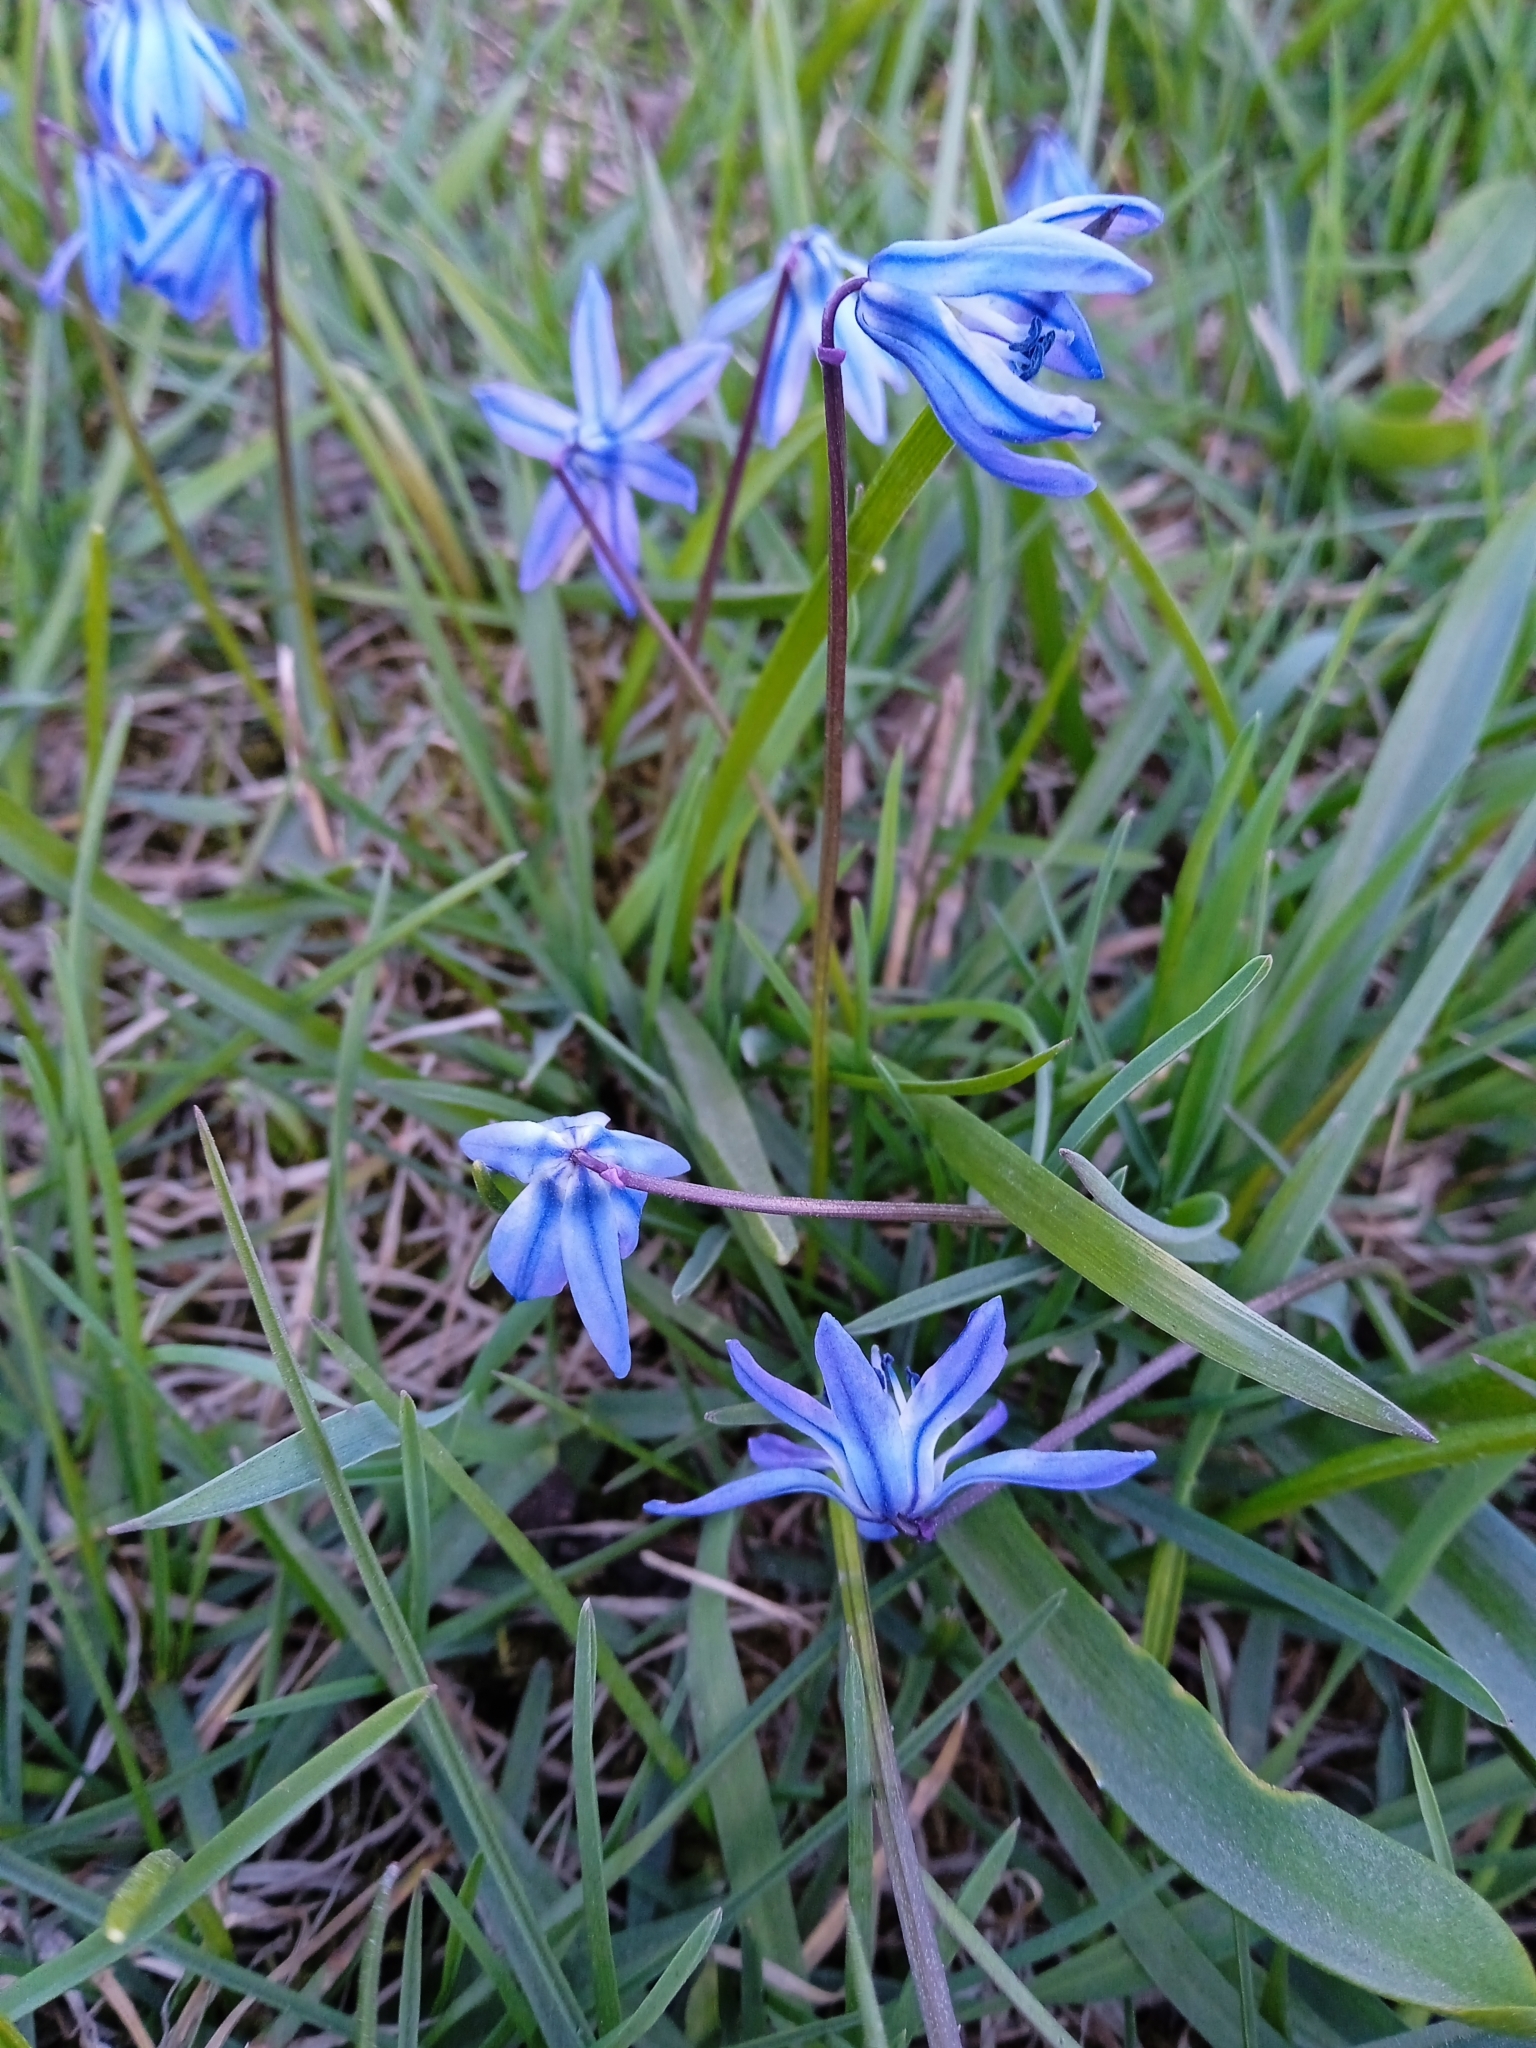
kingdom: Plantae
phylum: Tracheophyta
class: Liliopsida
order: Asparagales
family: Asparagaceae
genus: Scilla
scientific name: Scilla siberica
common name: Siberian squill
